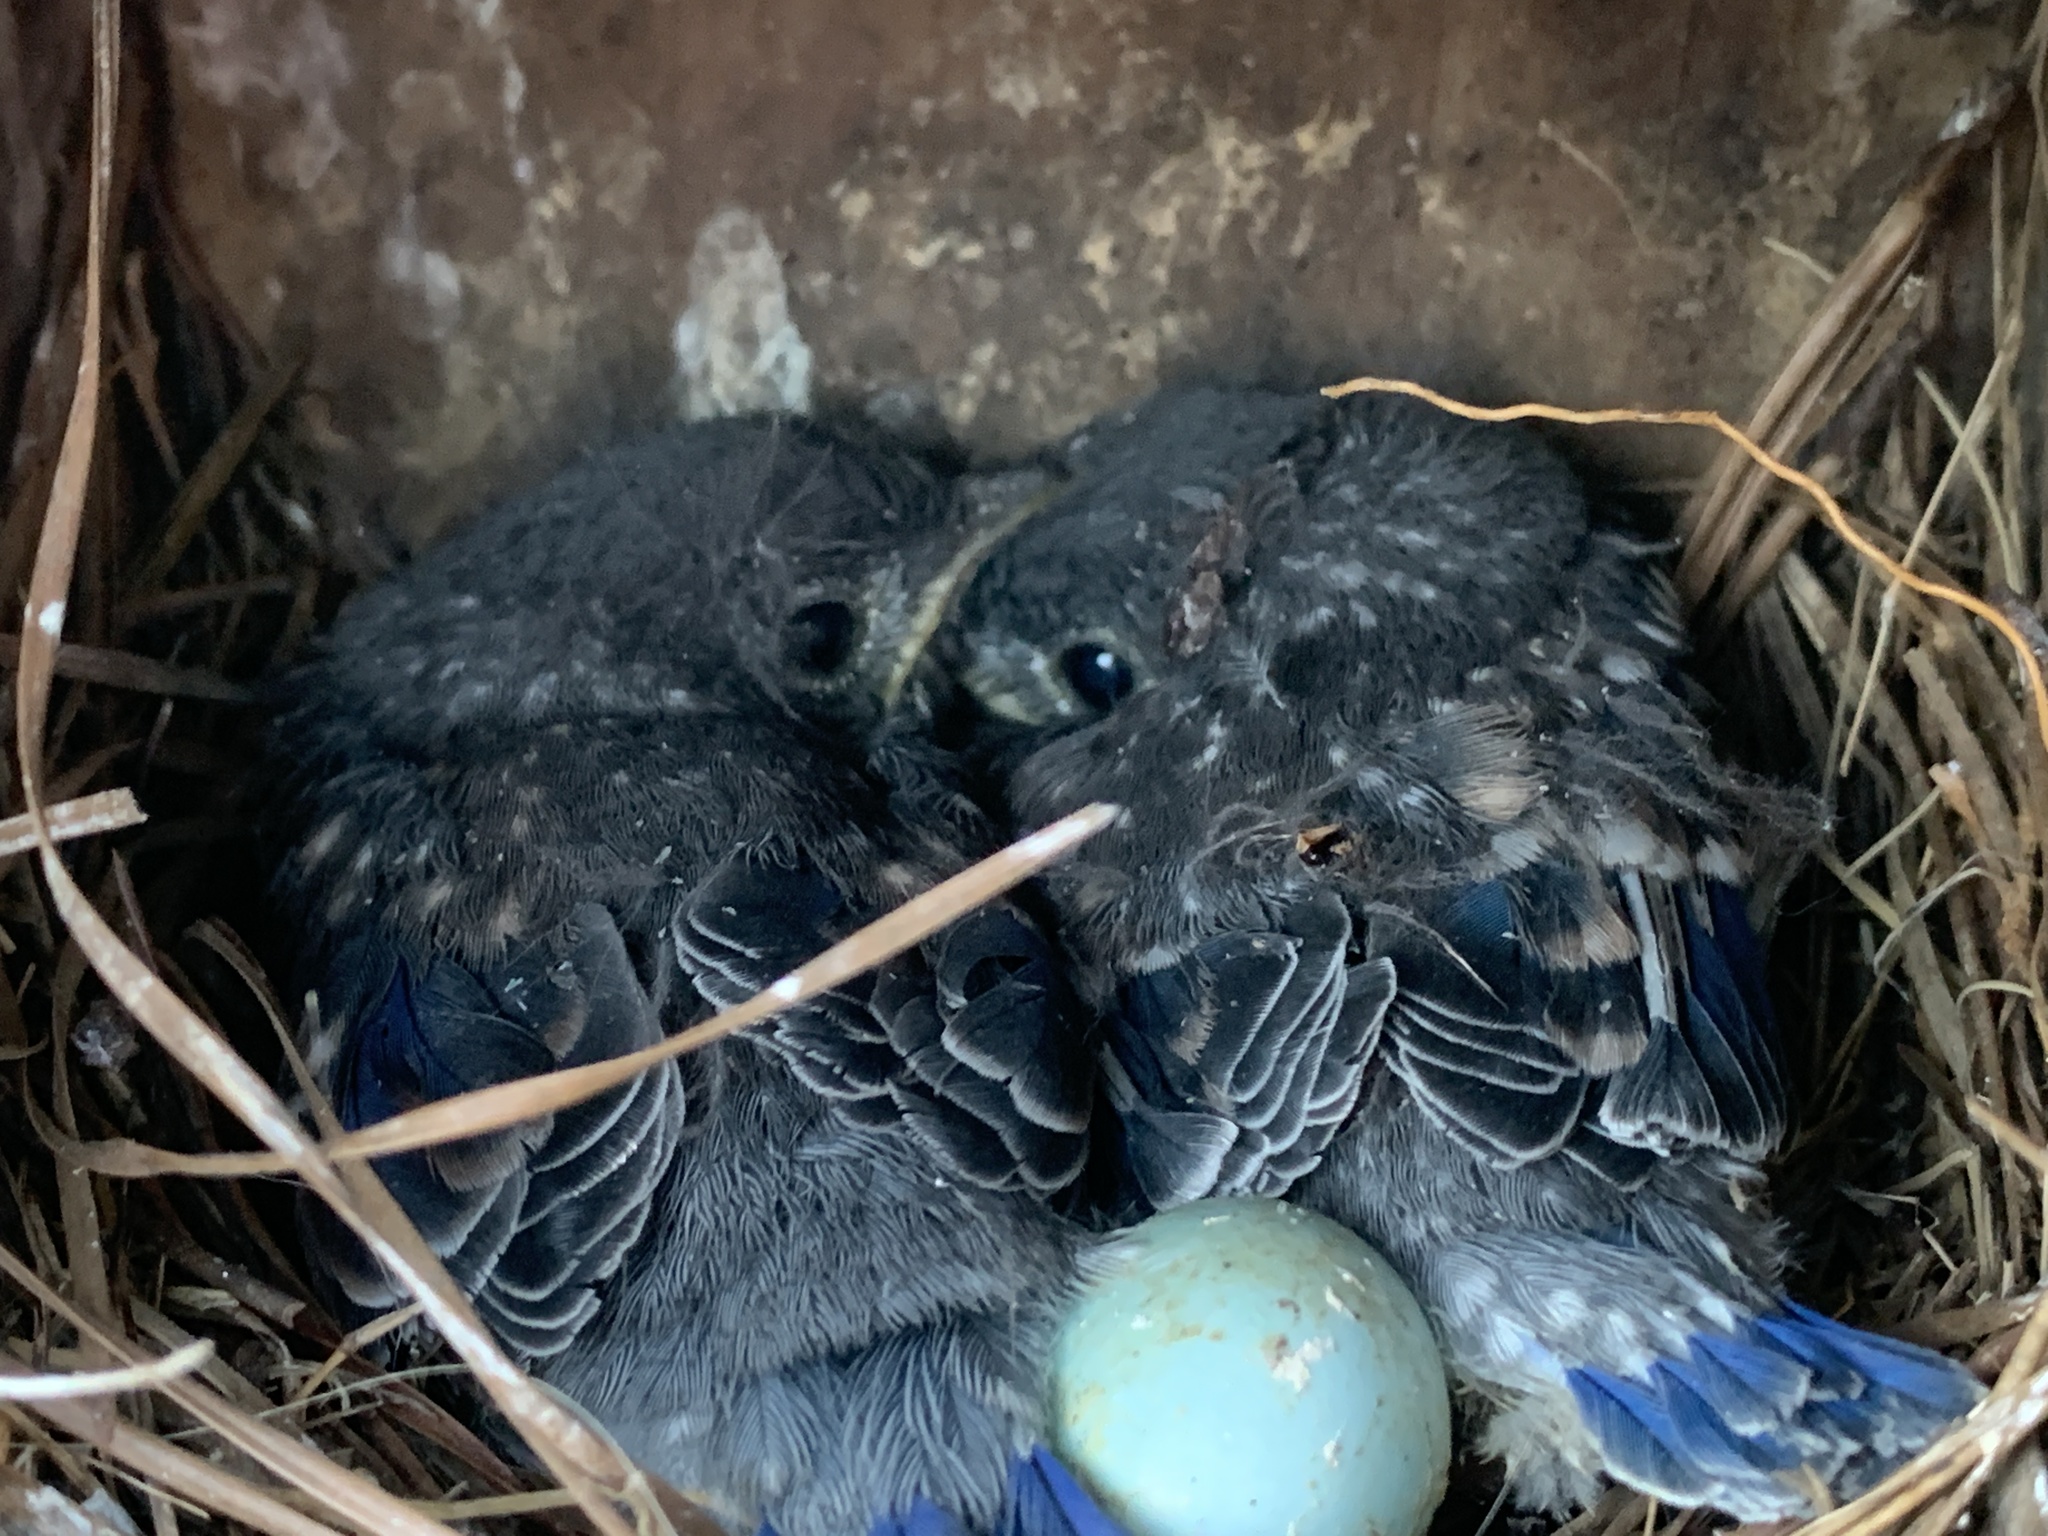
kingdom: Animalia
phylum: Chordata
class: Aves
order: Passeriformes
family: Turdidae
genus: Sialia
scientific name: Sialia sialis
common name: Eastern bluebird
